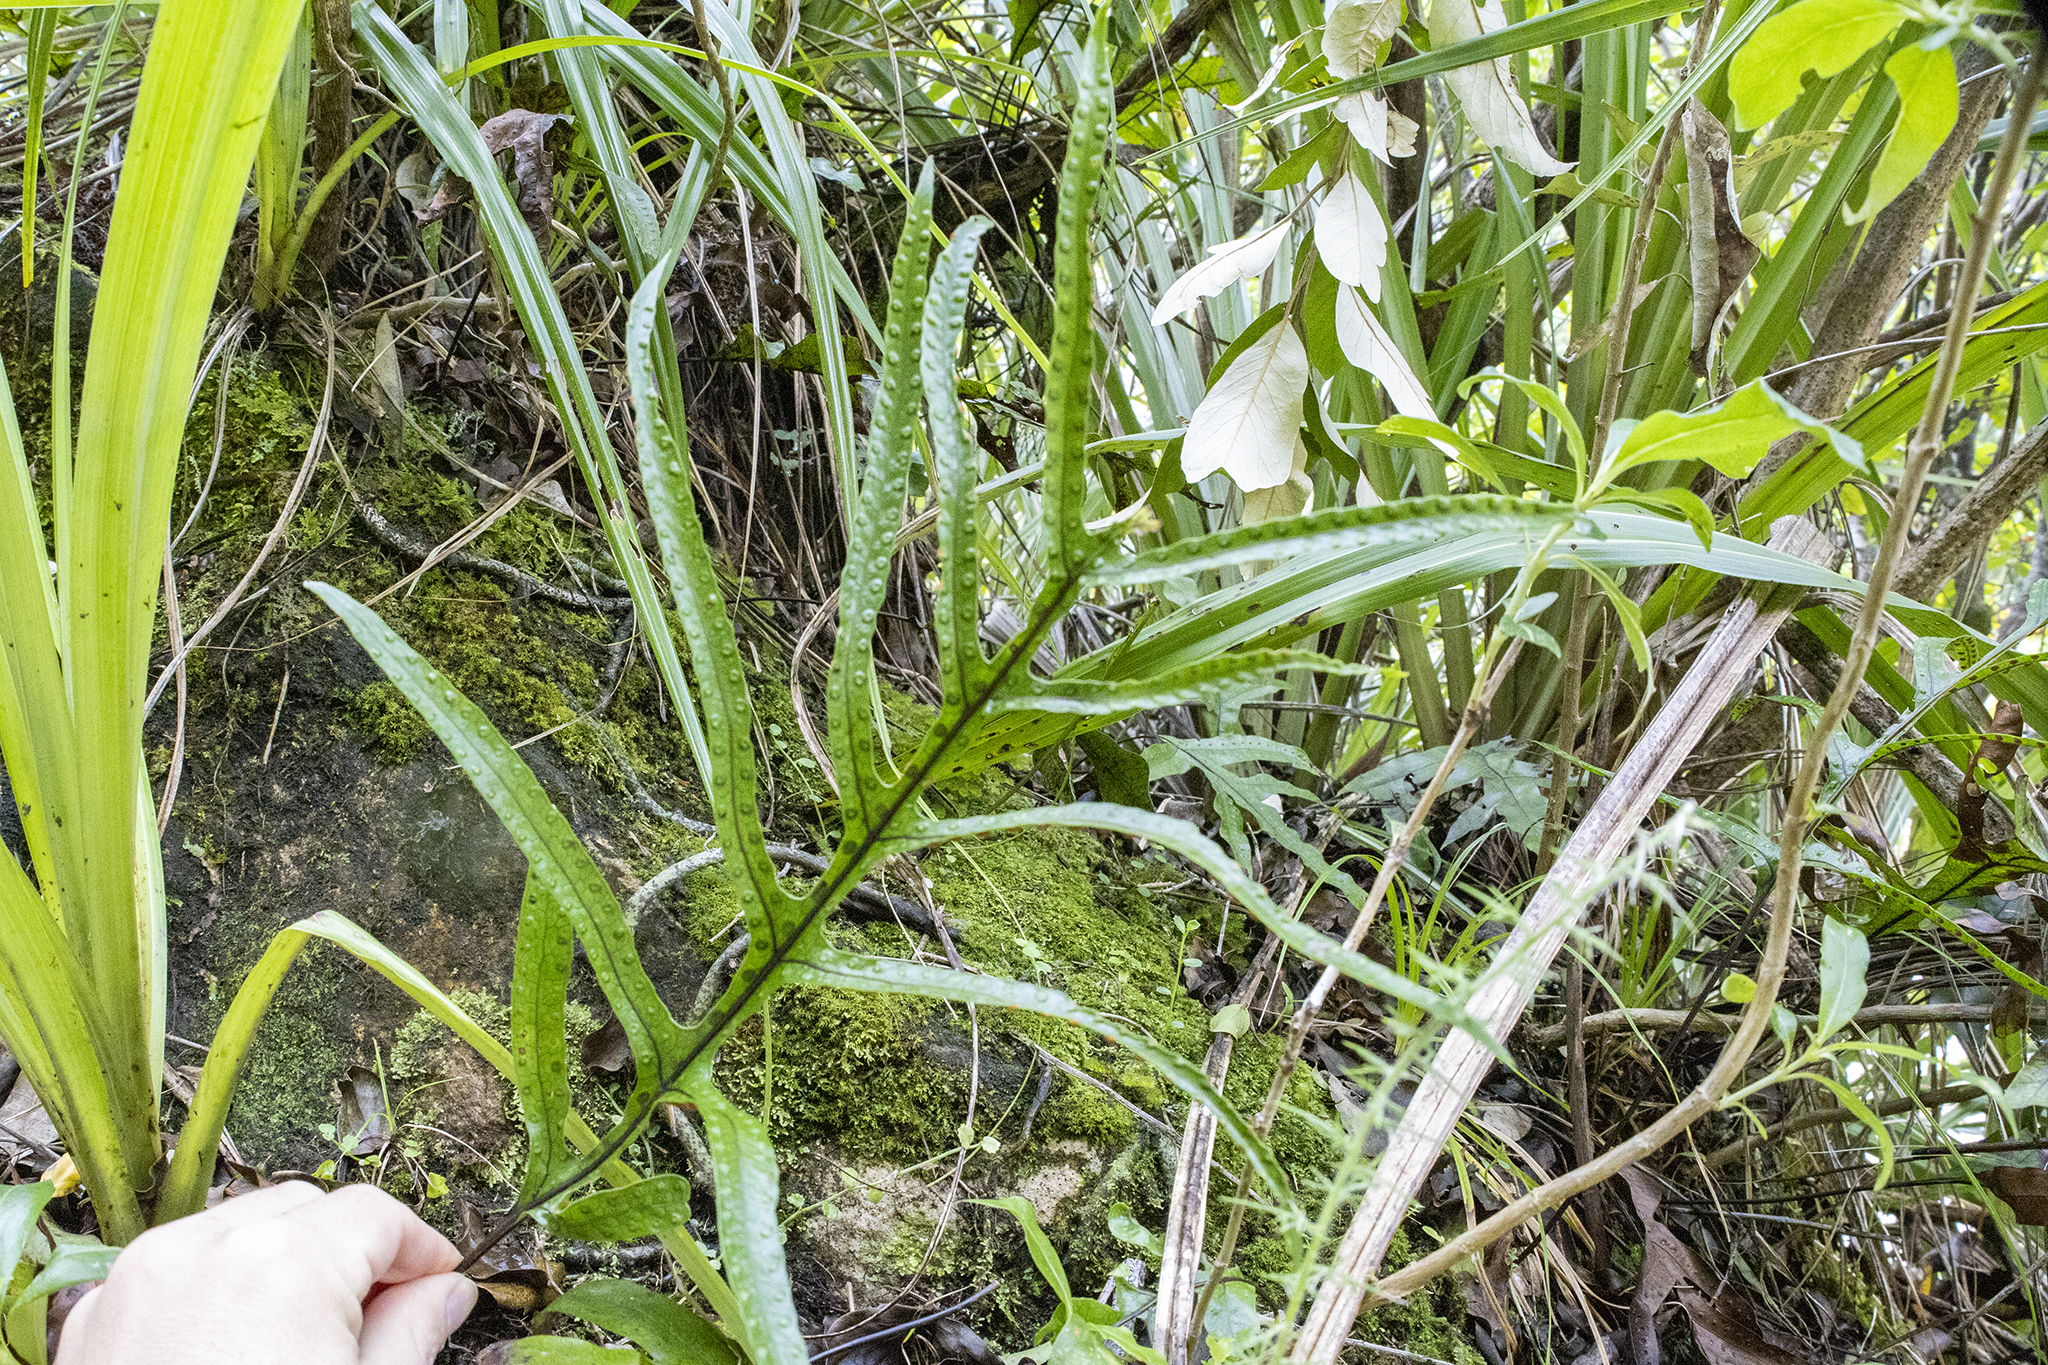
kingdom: Plantae
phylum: Tracheophyta
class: Polypodiopsida
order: Polypodiales
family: Polypodiaceae
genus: Lecanopteris
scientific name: Lecanopteris pustulata
